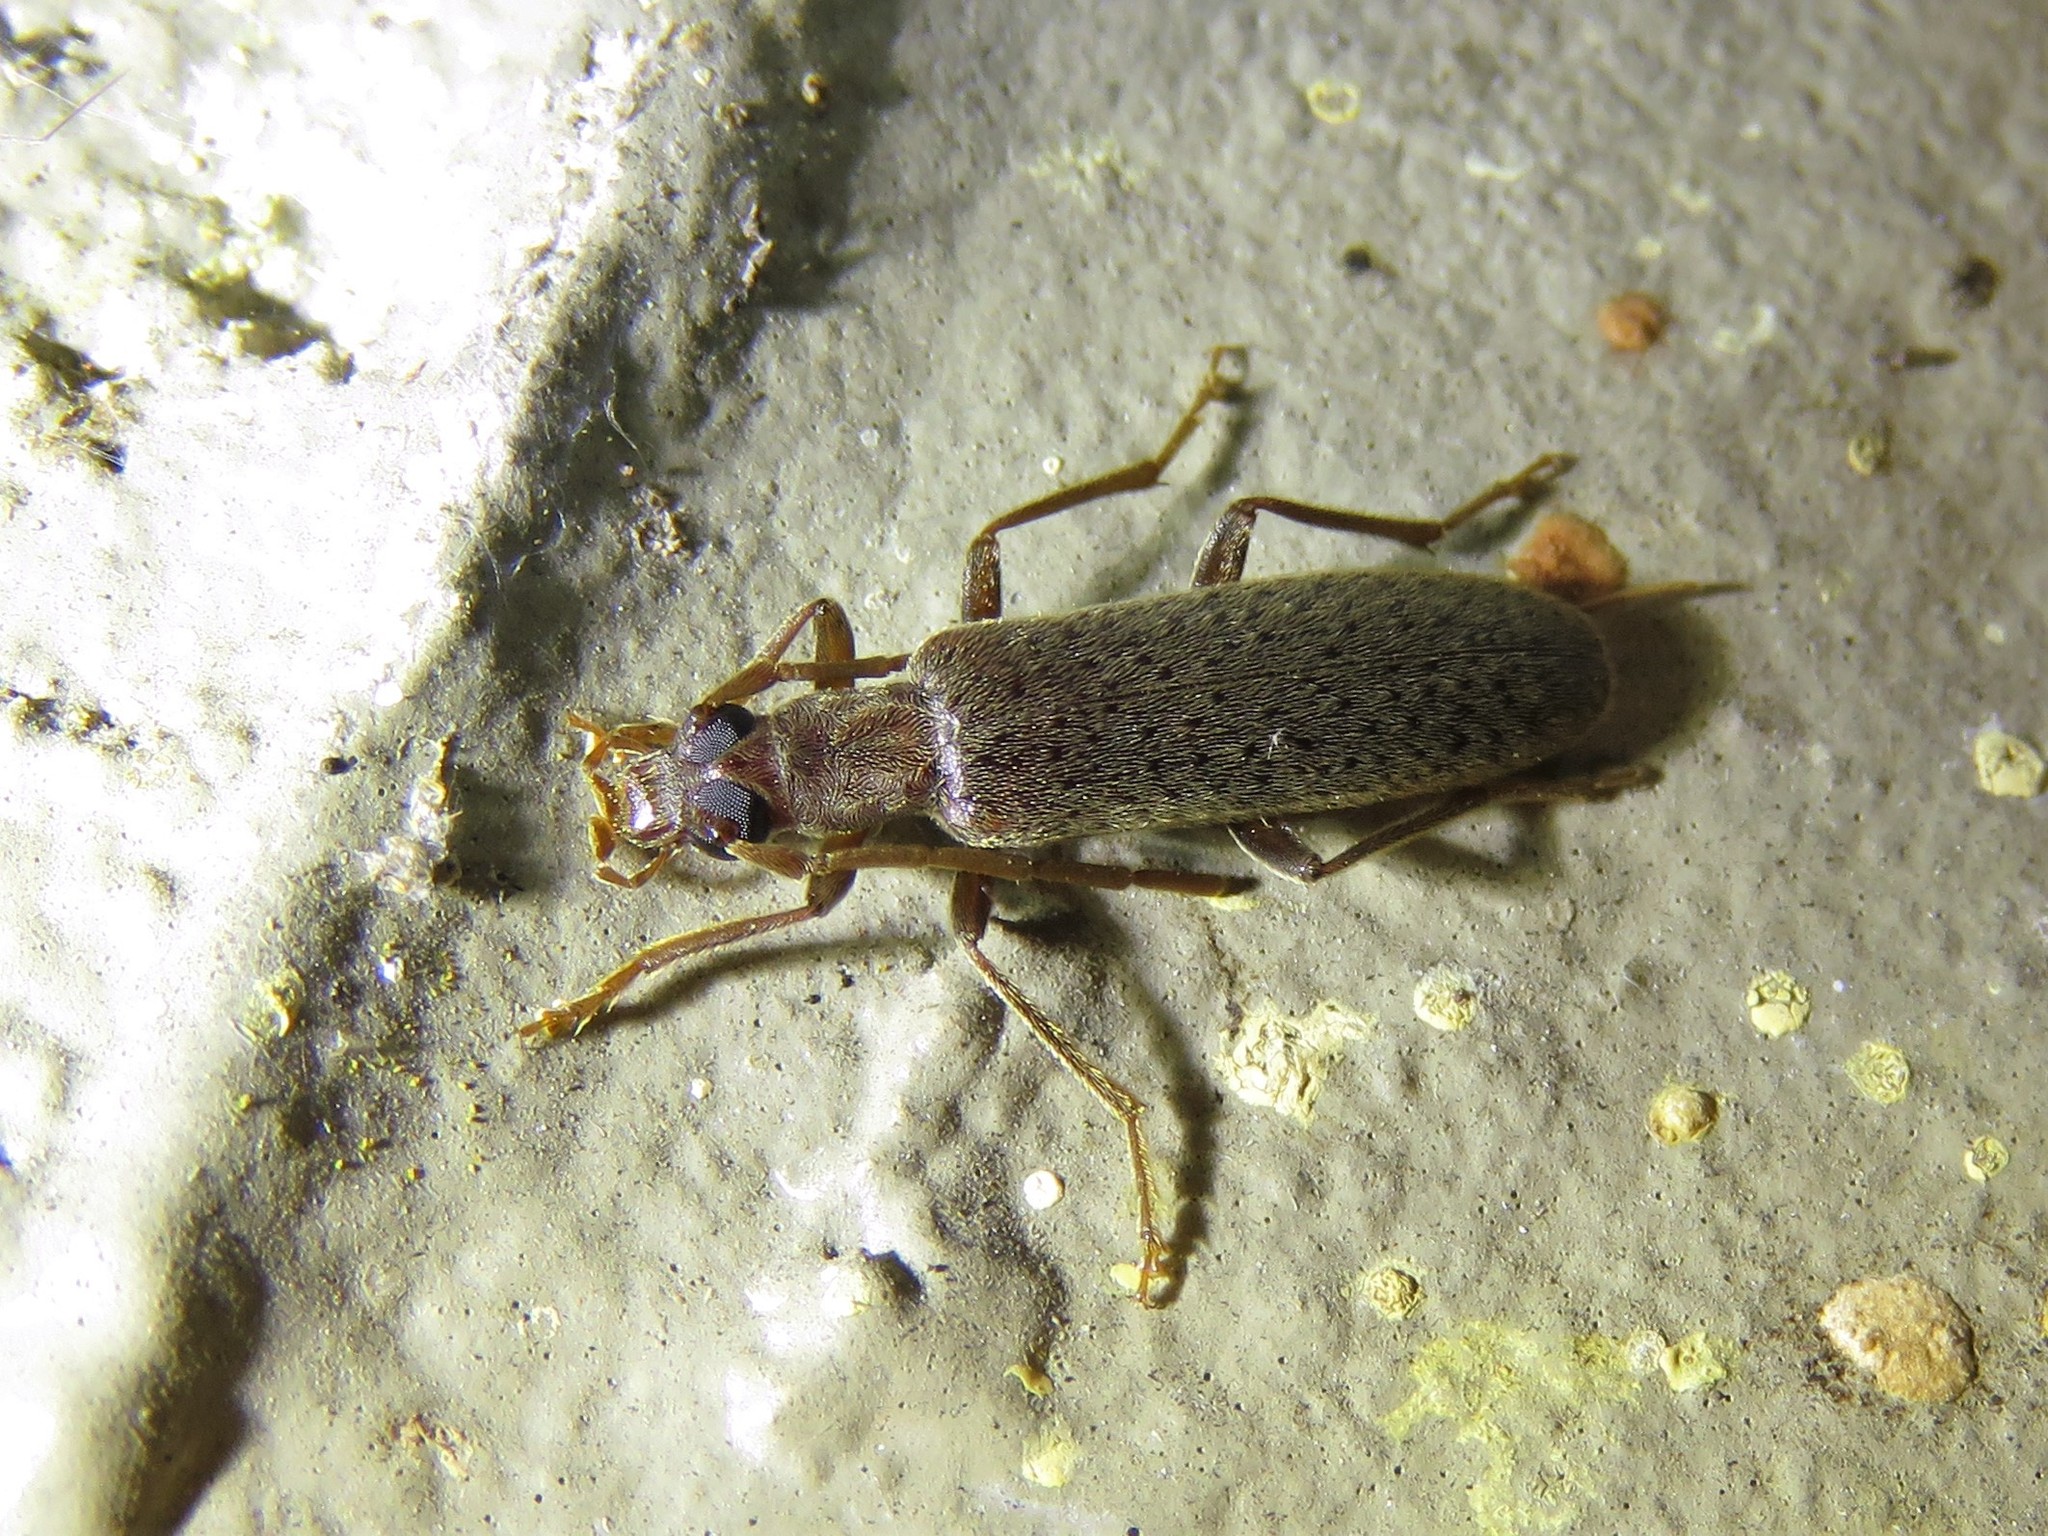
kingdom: Animalia
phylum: Arthropoda
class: Insecta
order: Coleoptera
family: Oedemeridae
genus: Sparedrus
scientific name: Sparedrus aspersus
